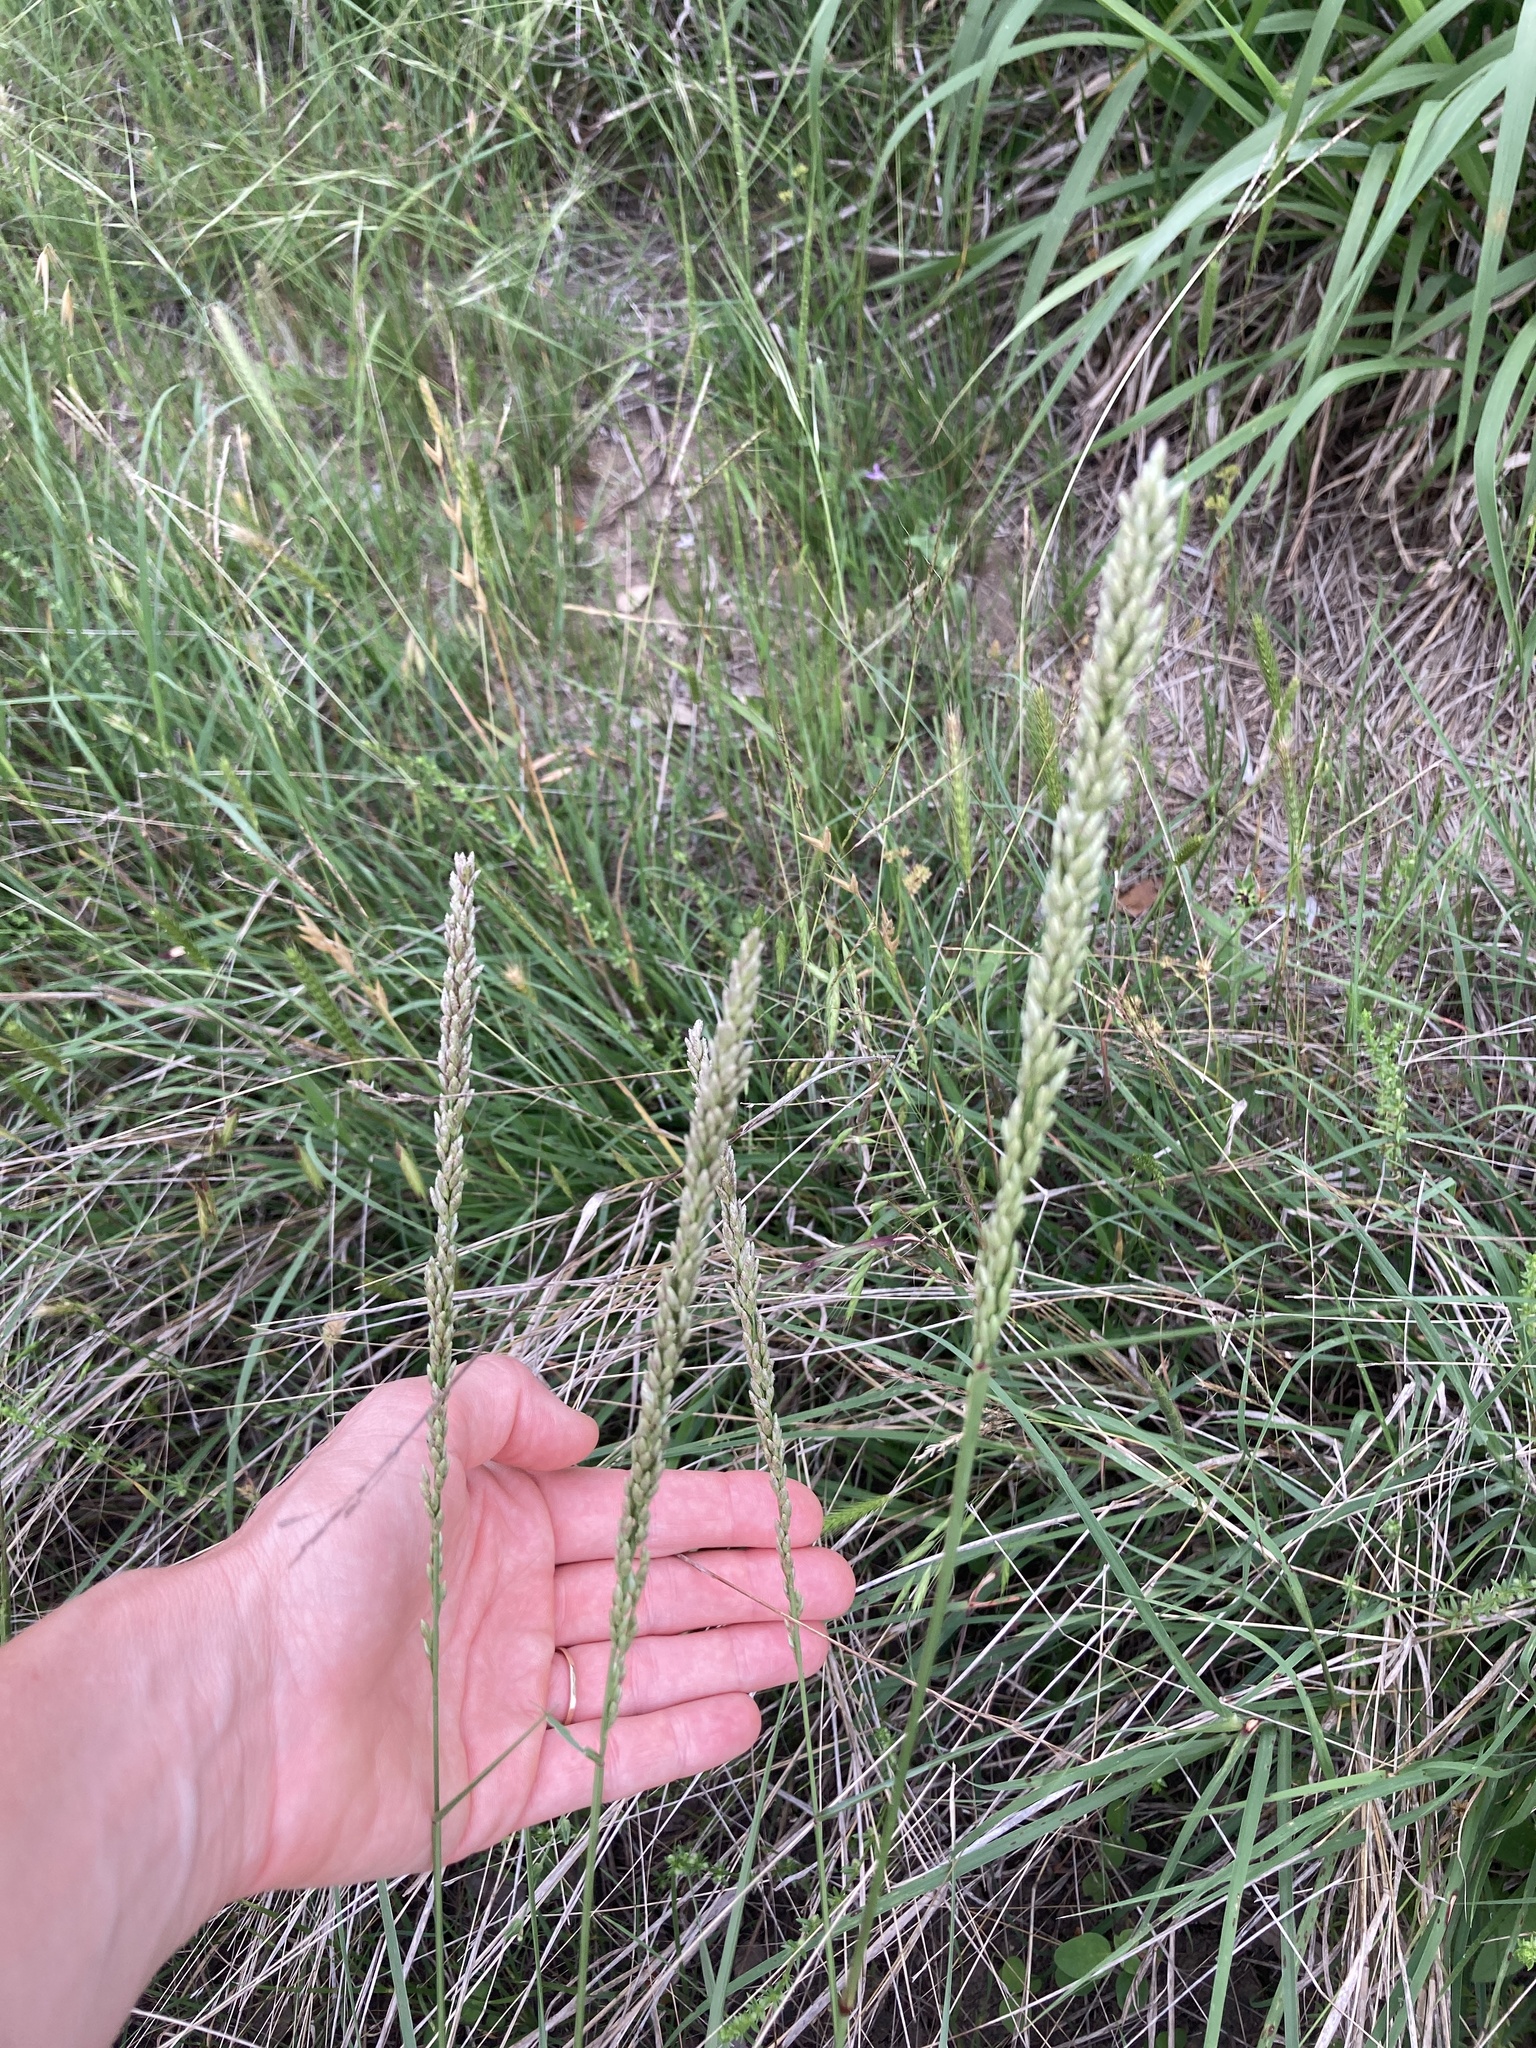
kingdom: Plantae
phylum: Tracheophyta
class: Liliopsida
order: Poales
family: Poaceae
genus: Tridens
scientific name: Tridens albescens
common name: White tridens
